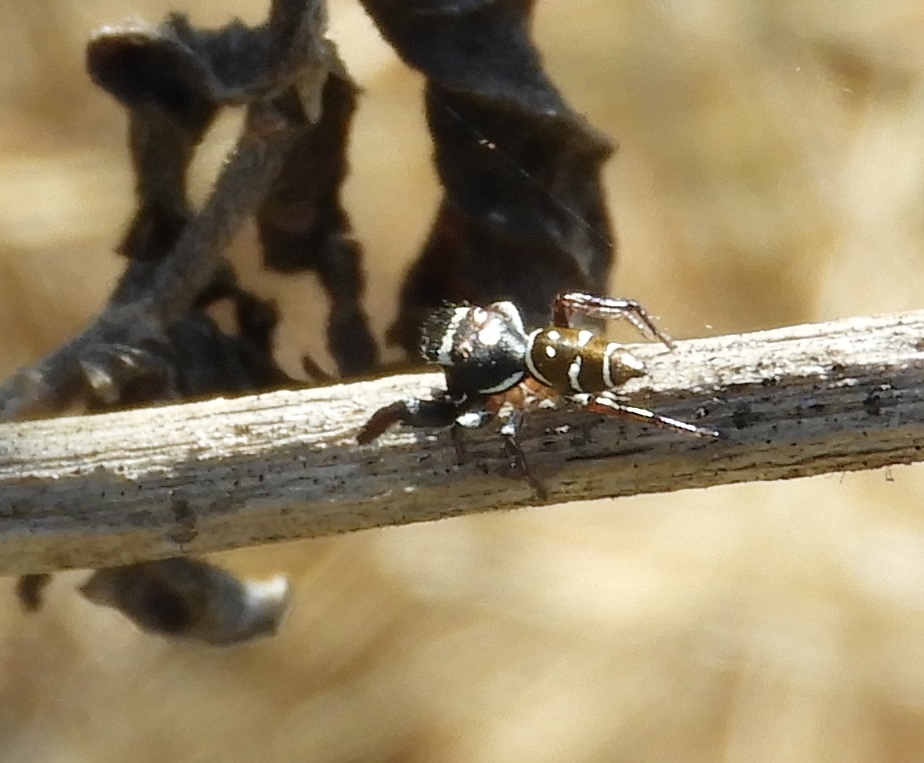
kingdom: Animalia
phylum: Arthropoda
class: Arachnida
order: Araneae
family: Salticidae
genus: Sassacus
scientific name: Sassacus
